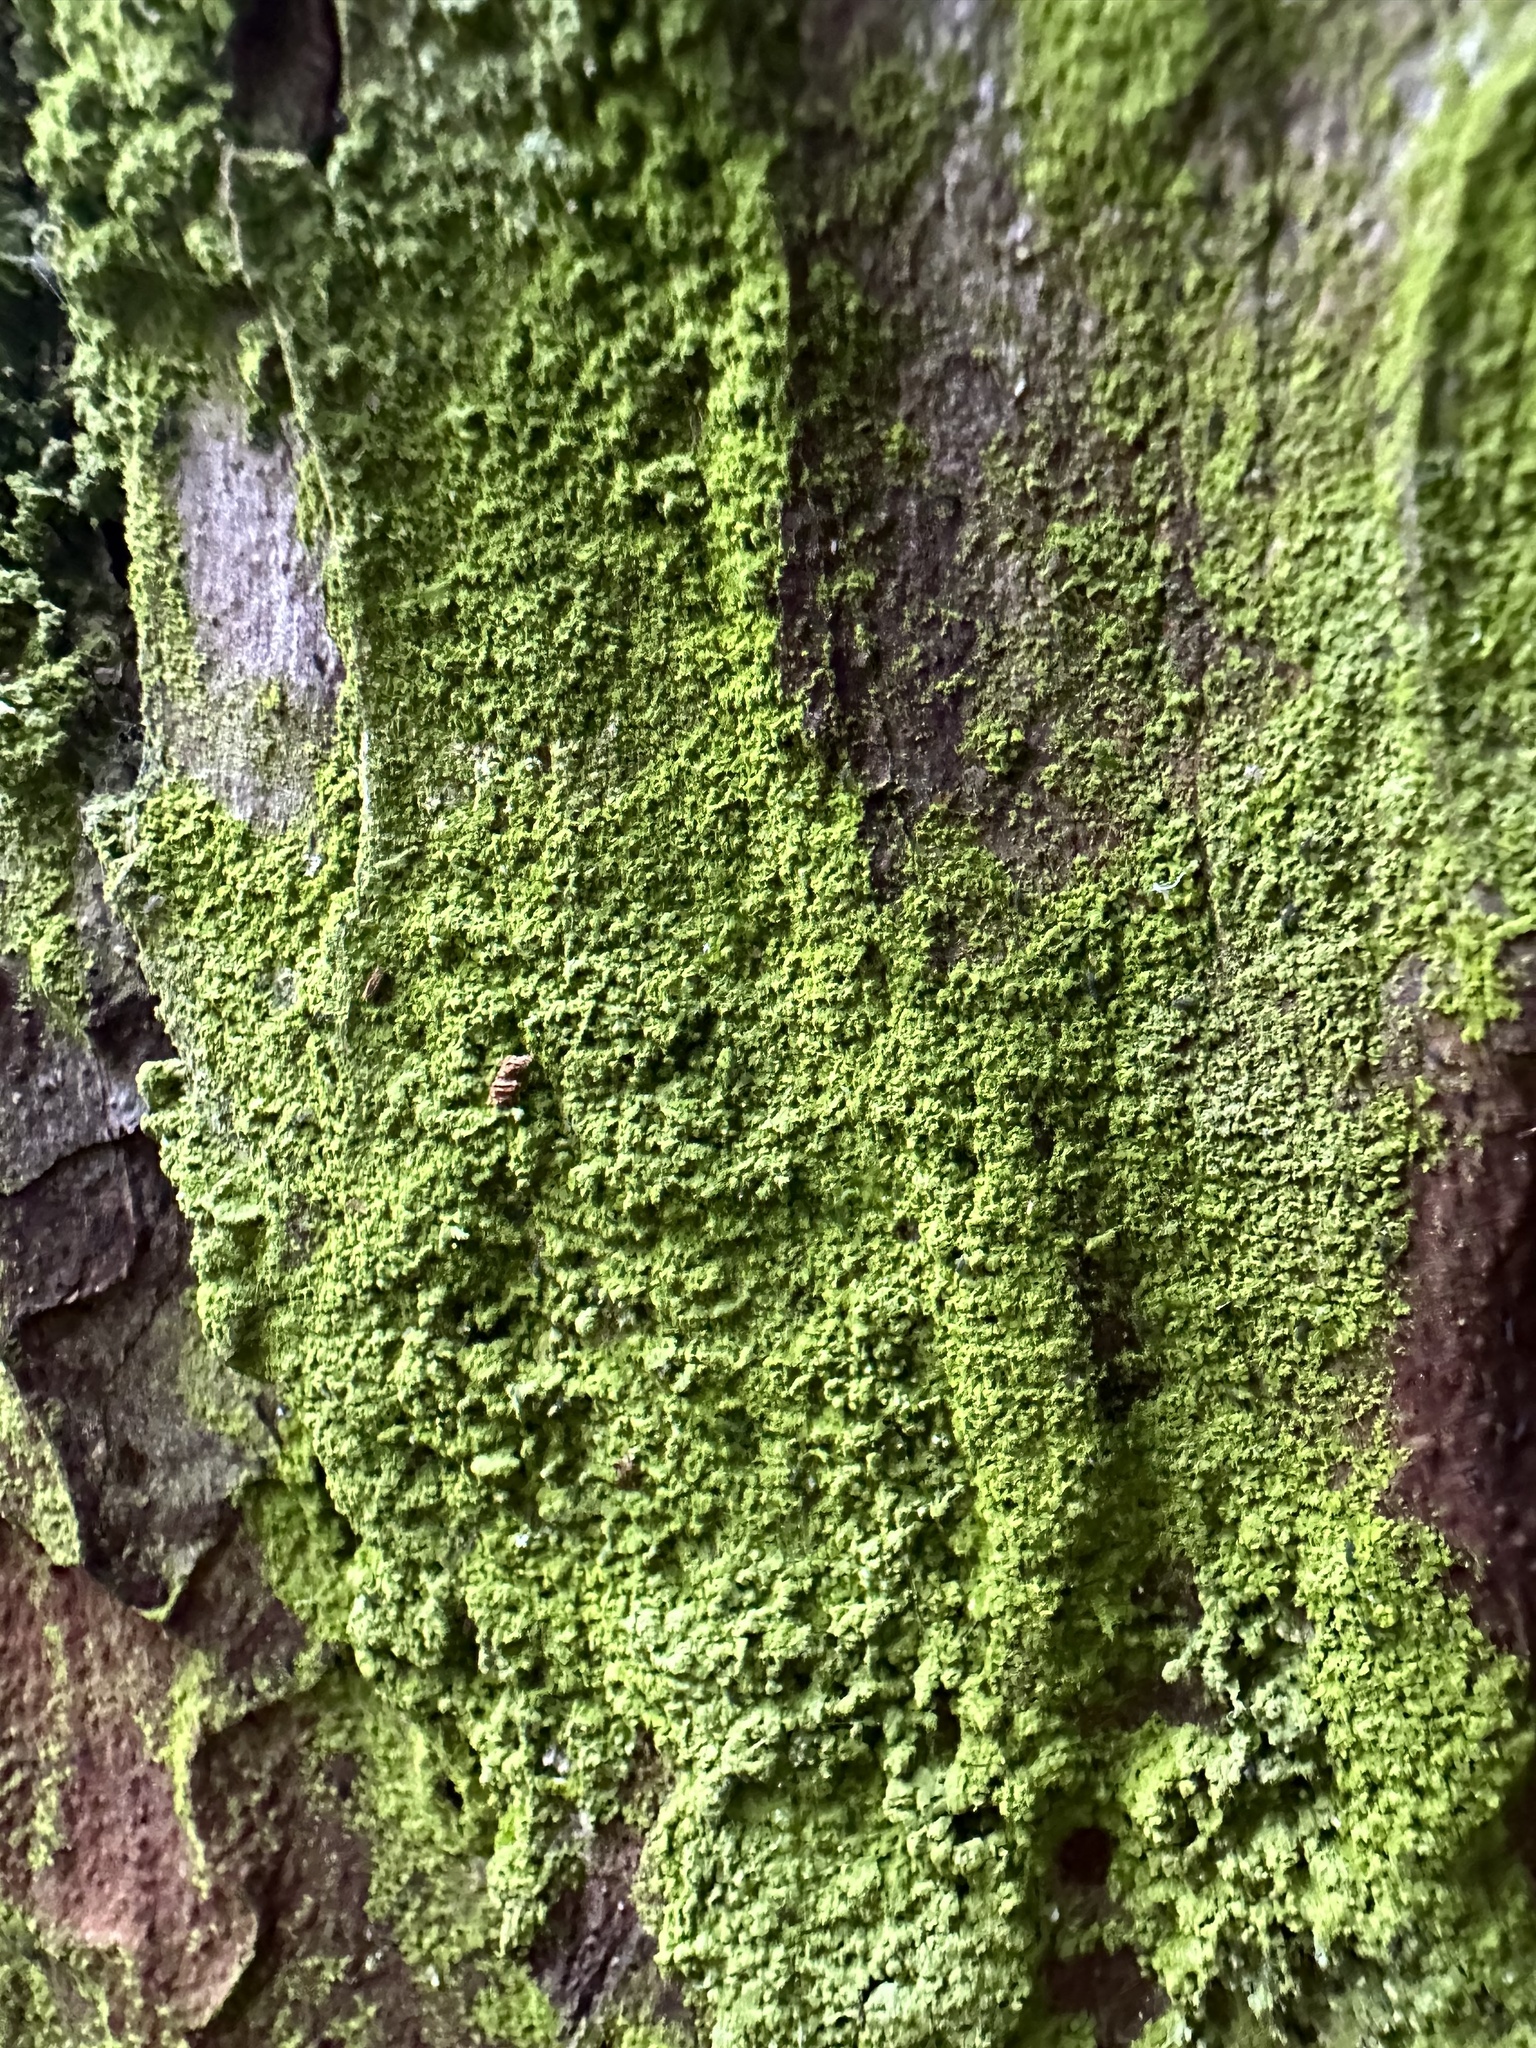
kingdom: Fungi
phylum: Ascomycota
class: Arthoniomycetes
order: Arthoniales
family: Chrysotrichaceae
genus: Chrysothrix
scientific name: Chrysothrix candelaris
